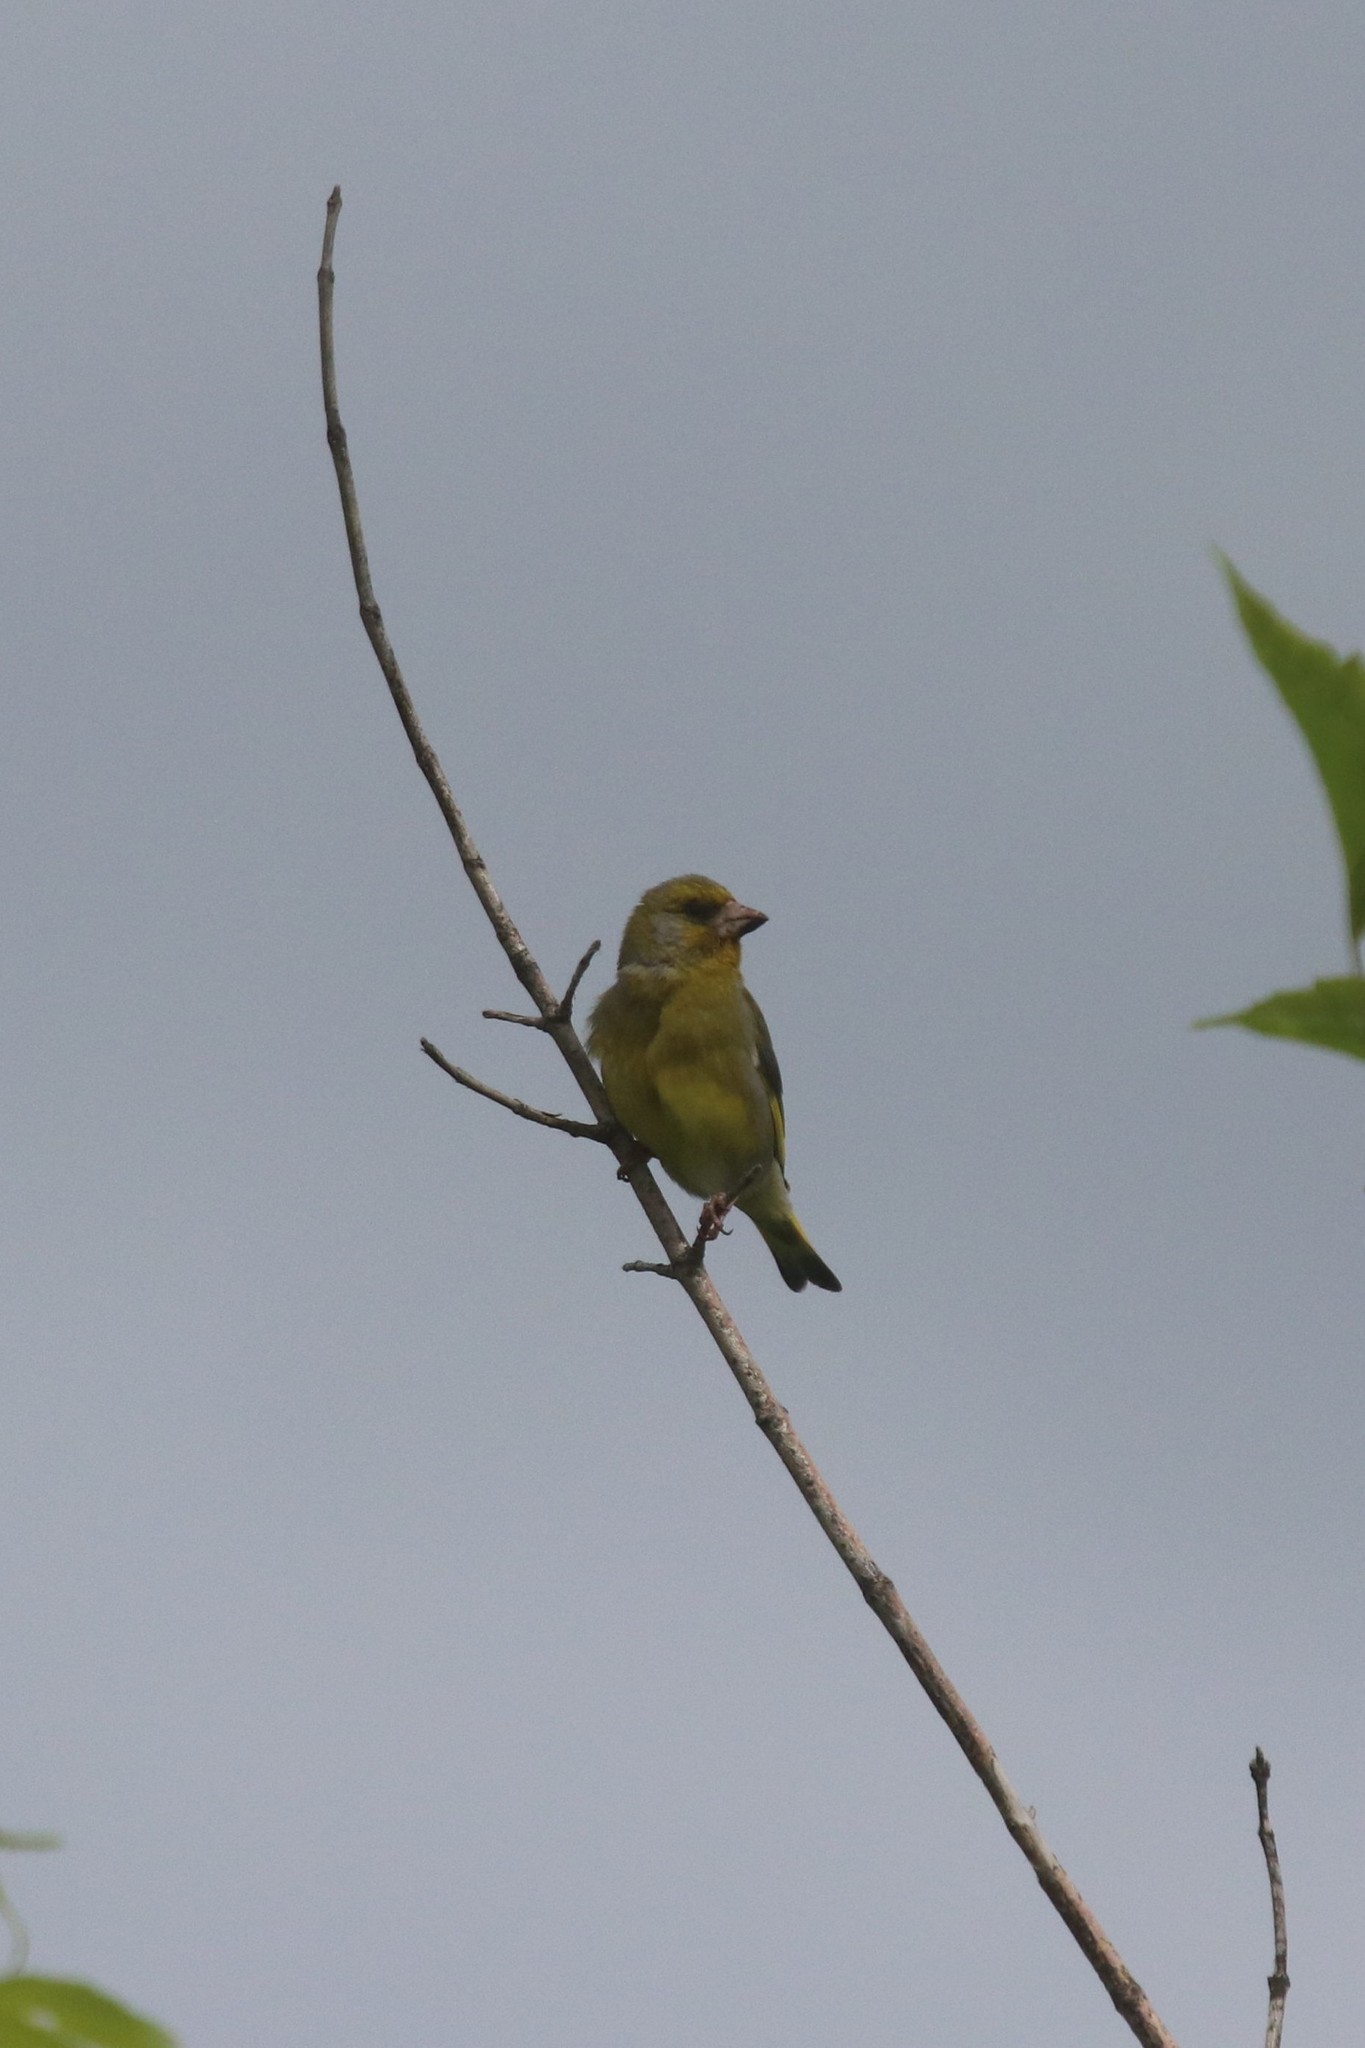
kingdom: Plantae
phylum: Tracheophyta
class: Liliopsida
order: Poales
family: Poaceae
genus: Chloris
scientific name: Chloris chloris
